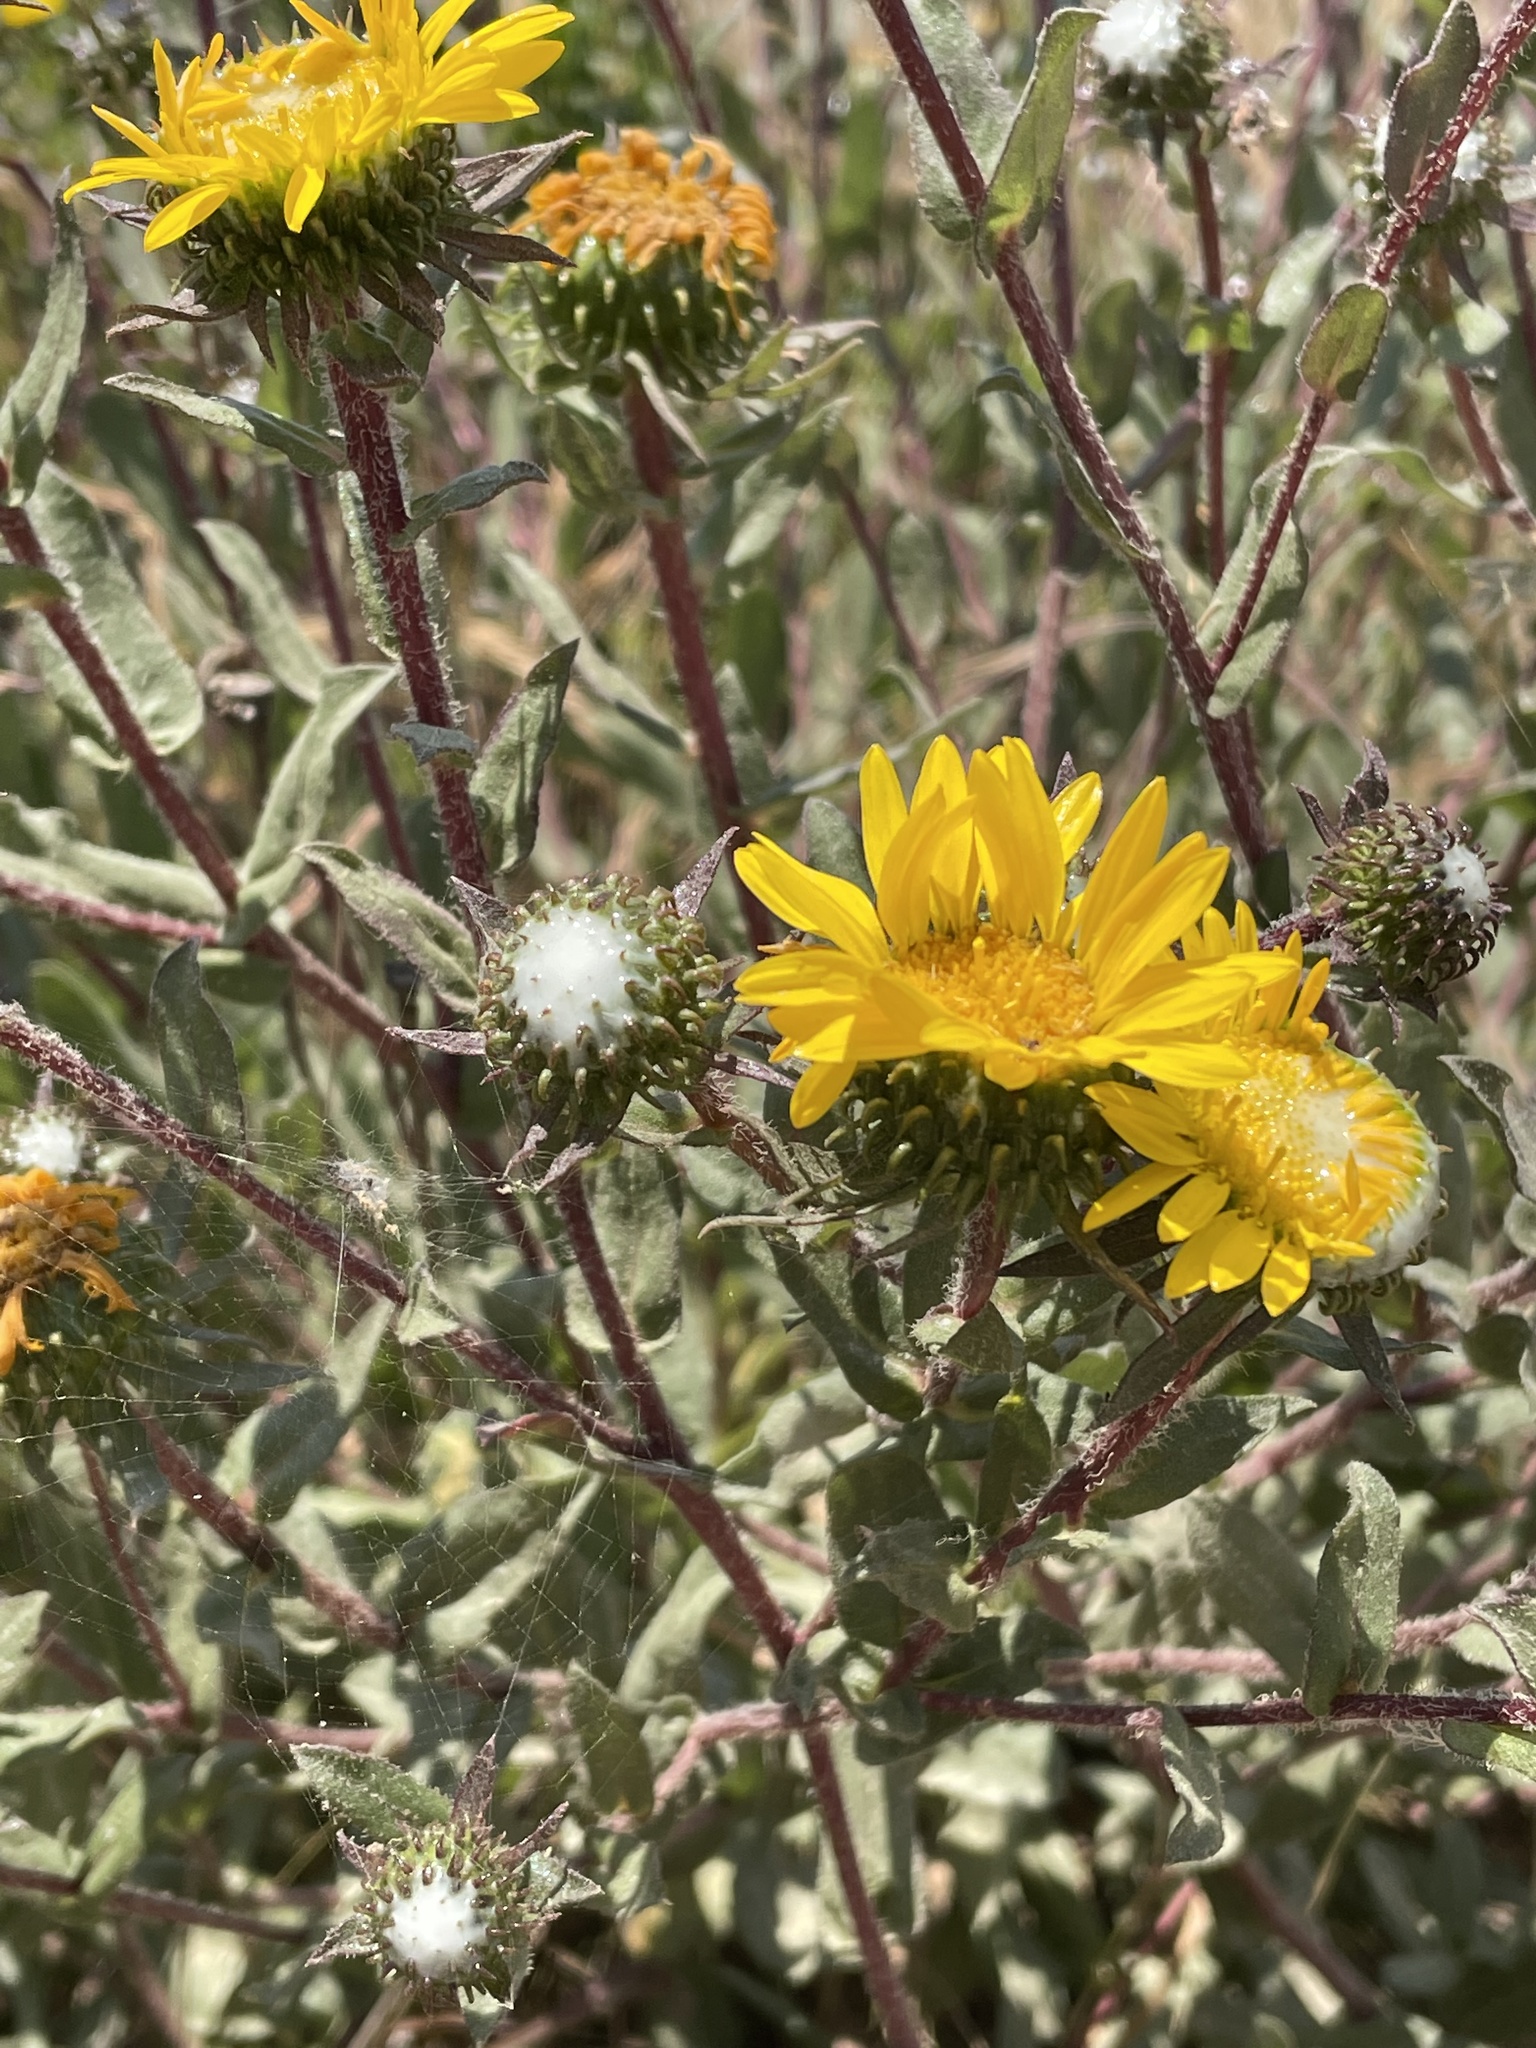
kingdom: Plantae
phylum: Tracheophyta
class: Magnoliopsida
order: Asterales
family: Asteraceae
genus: Grindelia
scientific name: Grindelia hirsutula
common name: Hairy gumweed
